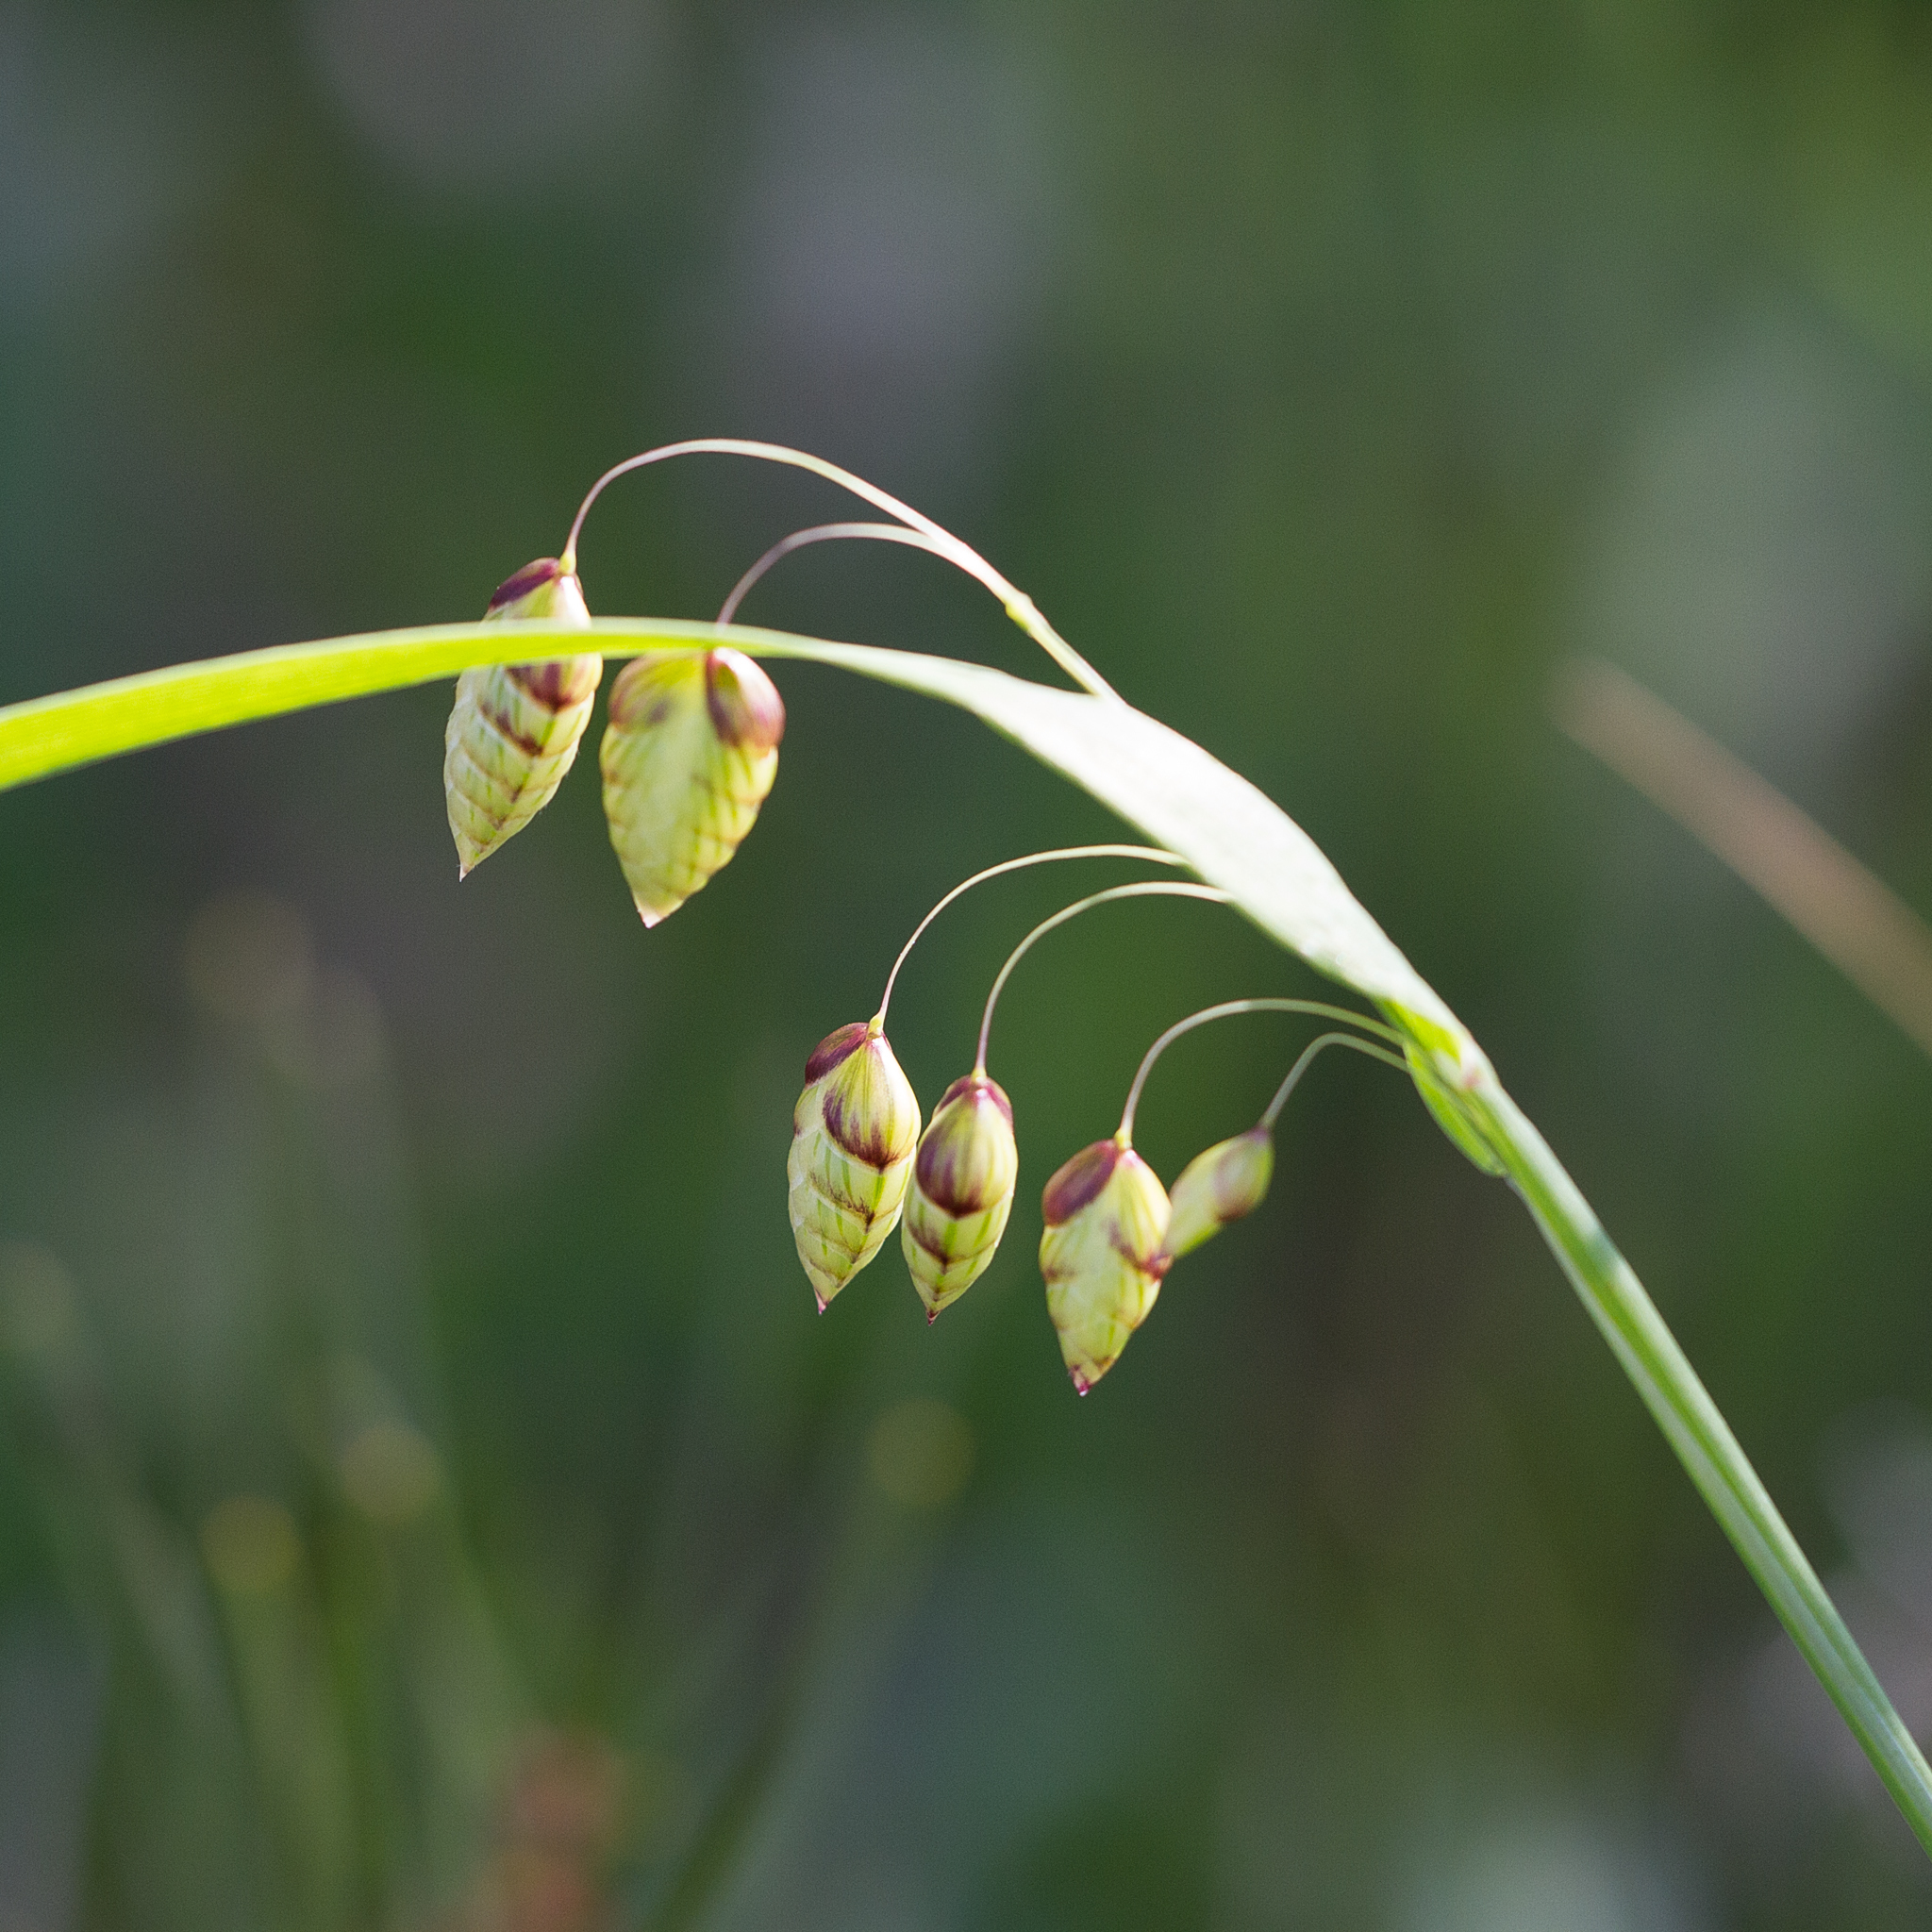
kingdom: Plantae
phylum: Tracheophyta
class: Liliopsida
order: Poales
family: Poaceae
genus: Briza
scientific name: Briza maxima
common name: Big quakinggrass
